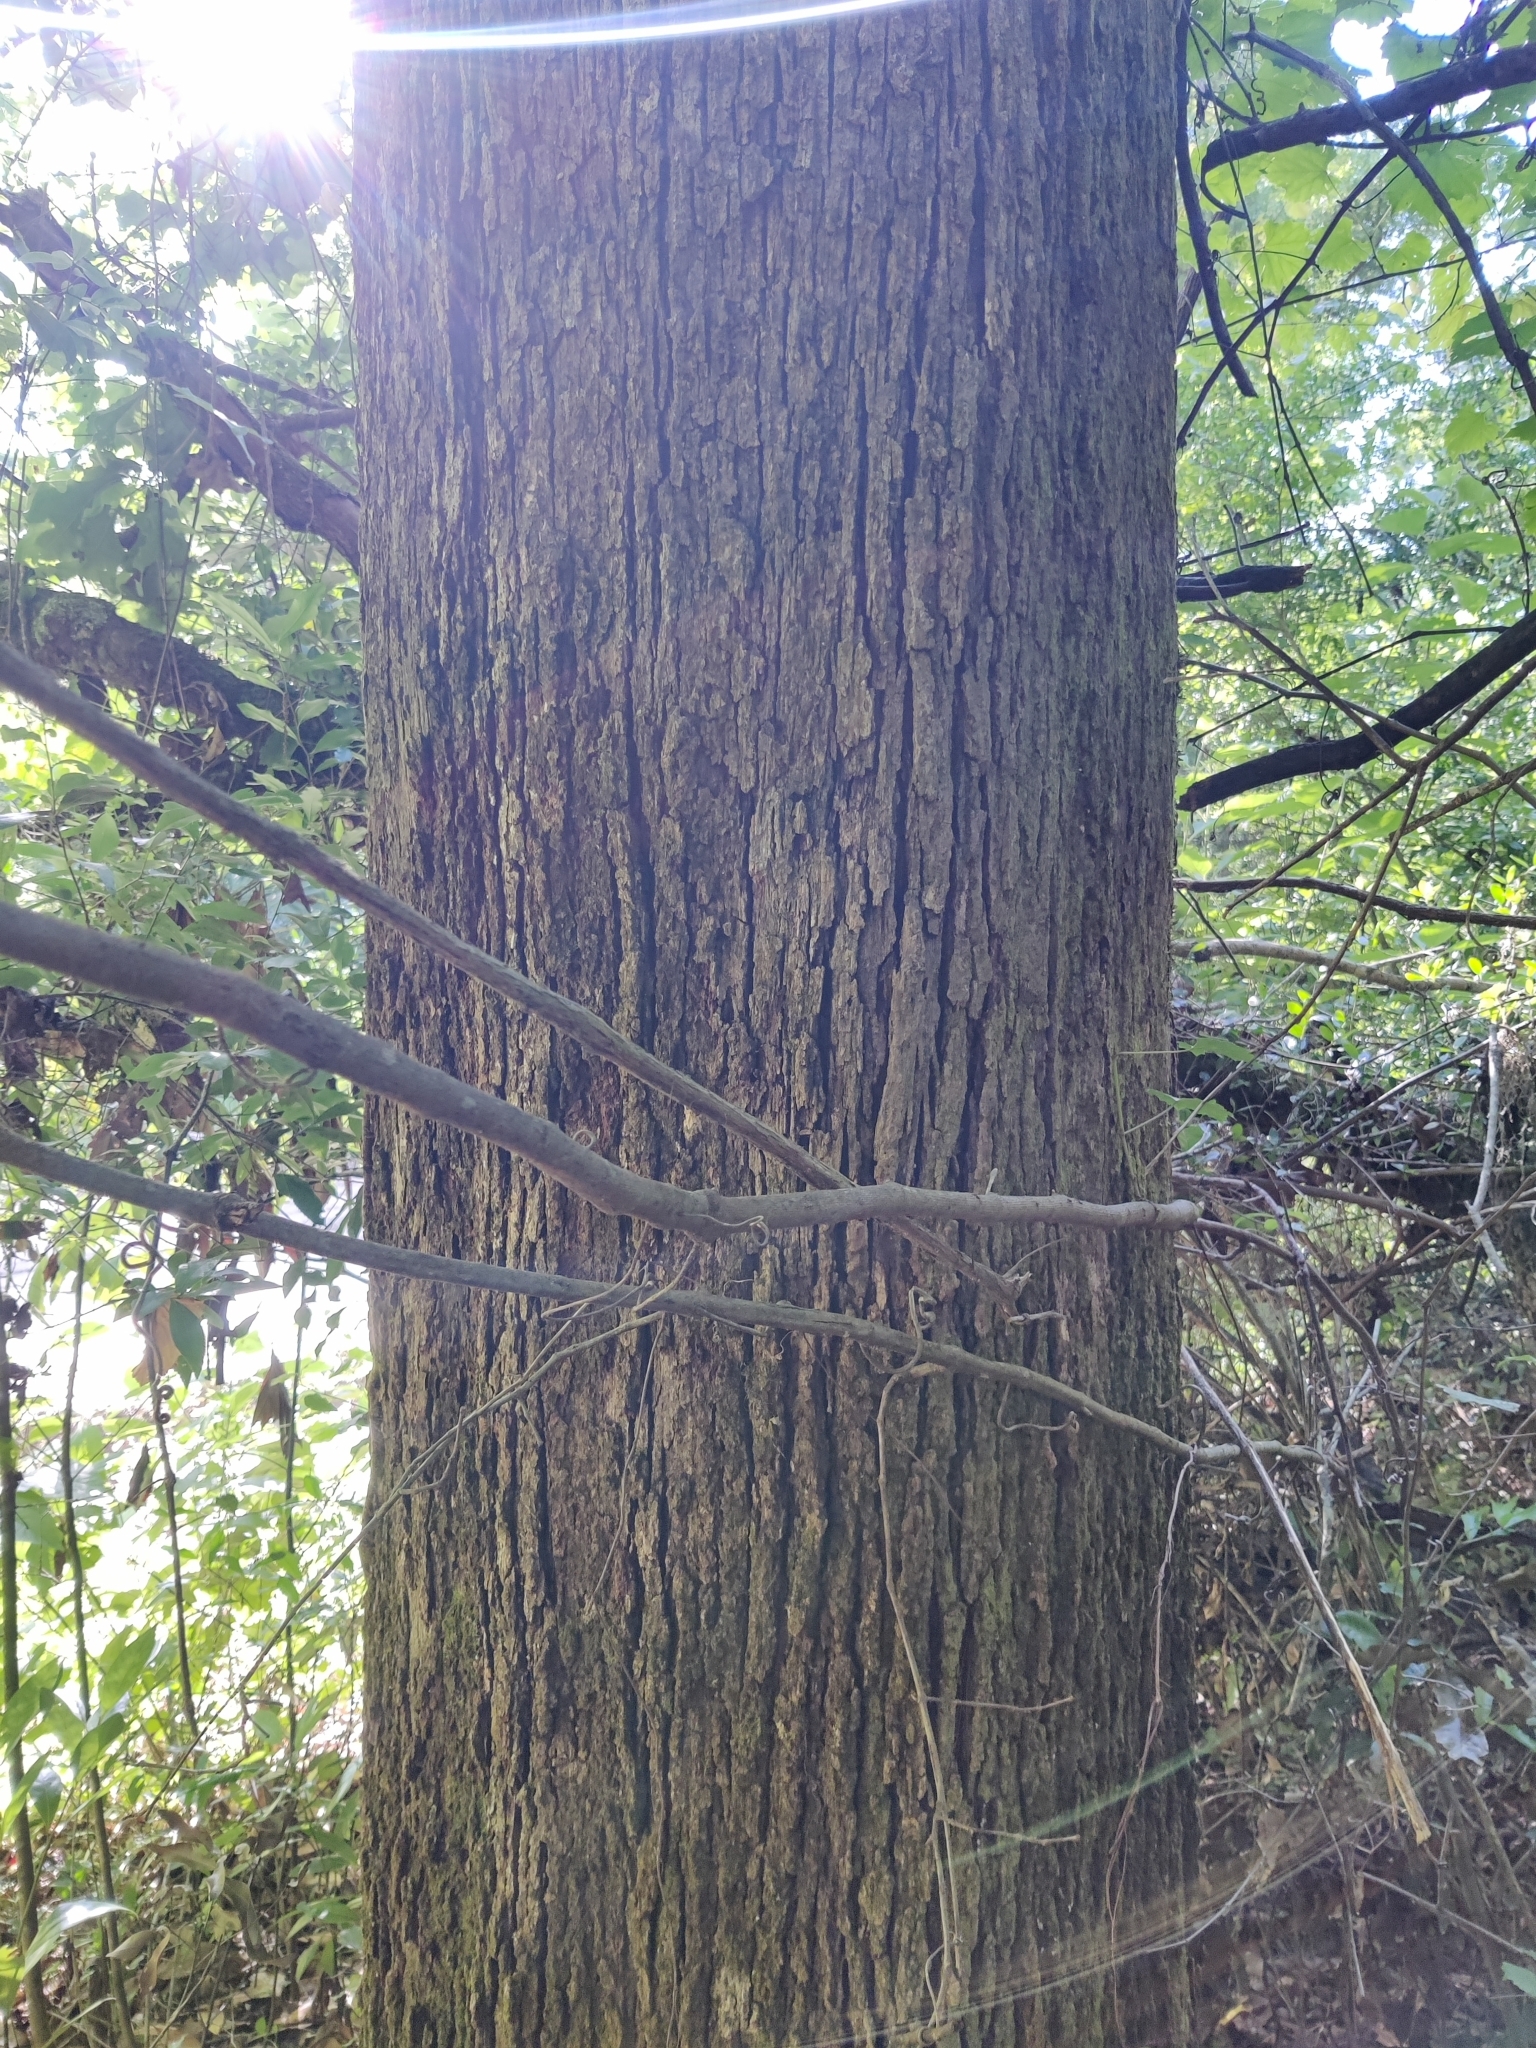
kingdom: Plantae
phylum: Tracheophyta
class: Magnoliopsida
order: Fagales
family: Fagaceae
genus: Quercus
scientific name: Quercus stellata
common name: Post oak
